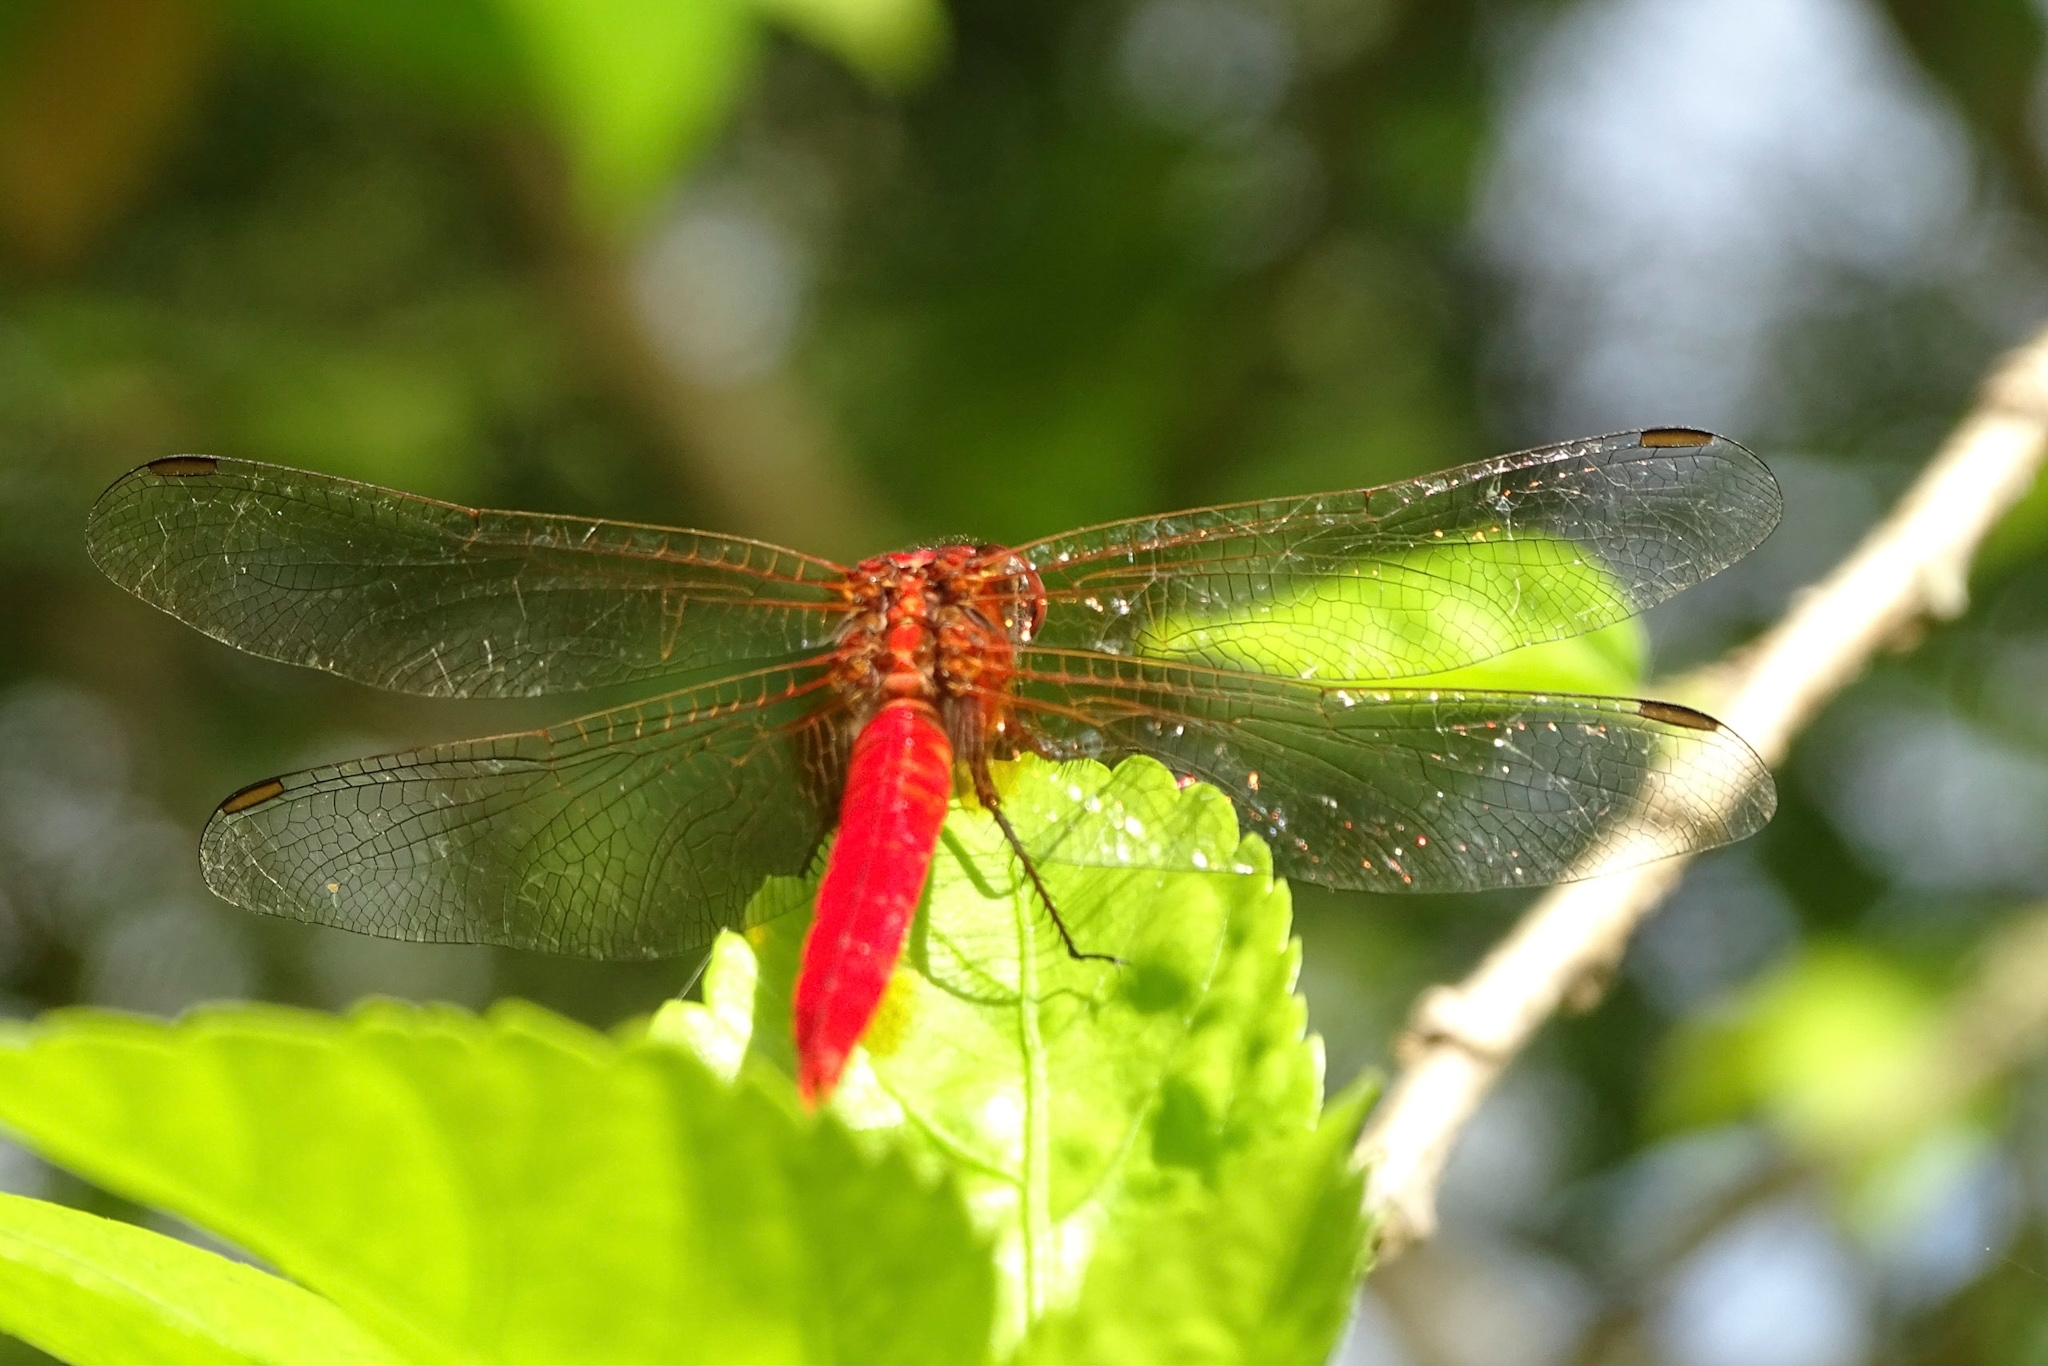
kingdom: Animalia
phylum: Arthropoda
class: Insecta
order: Odonata
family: Libellulidae
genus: Rhodothemis
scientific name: Rhodothemis rufa
